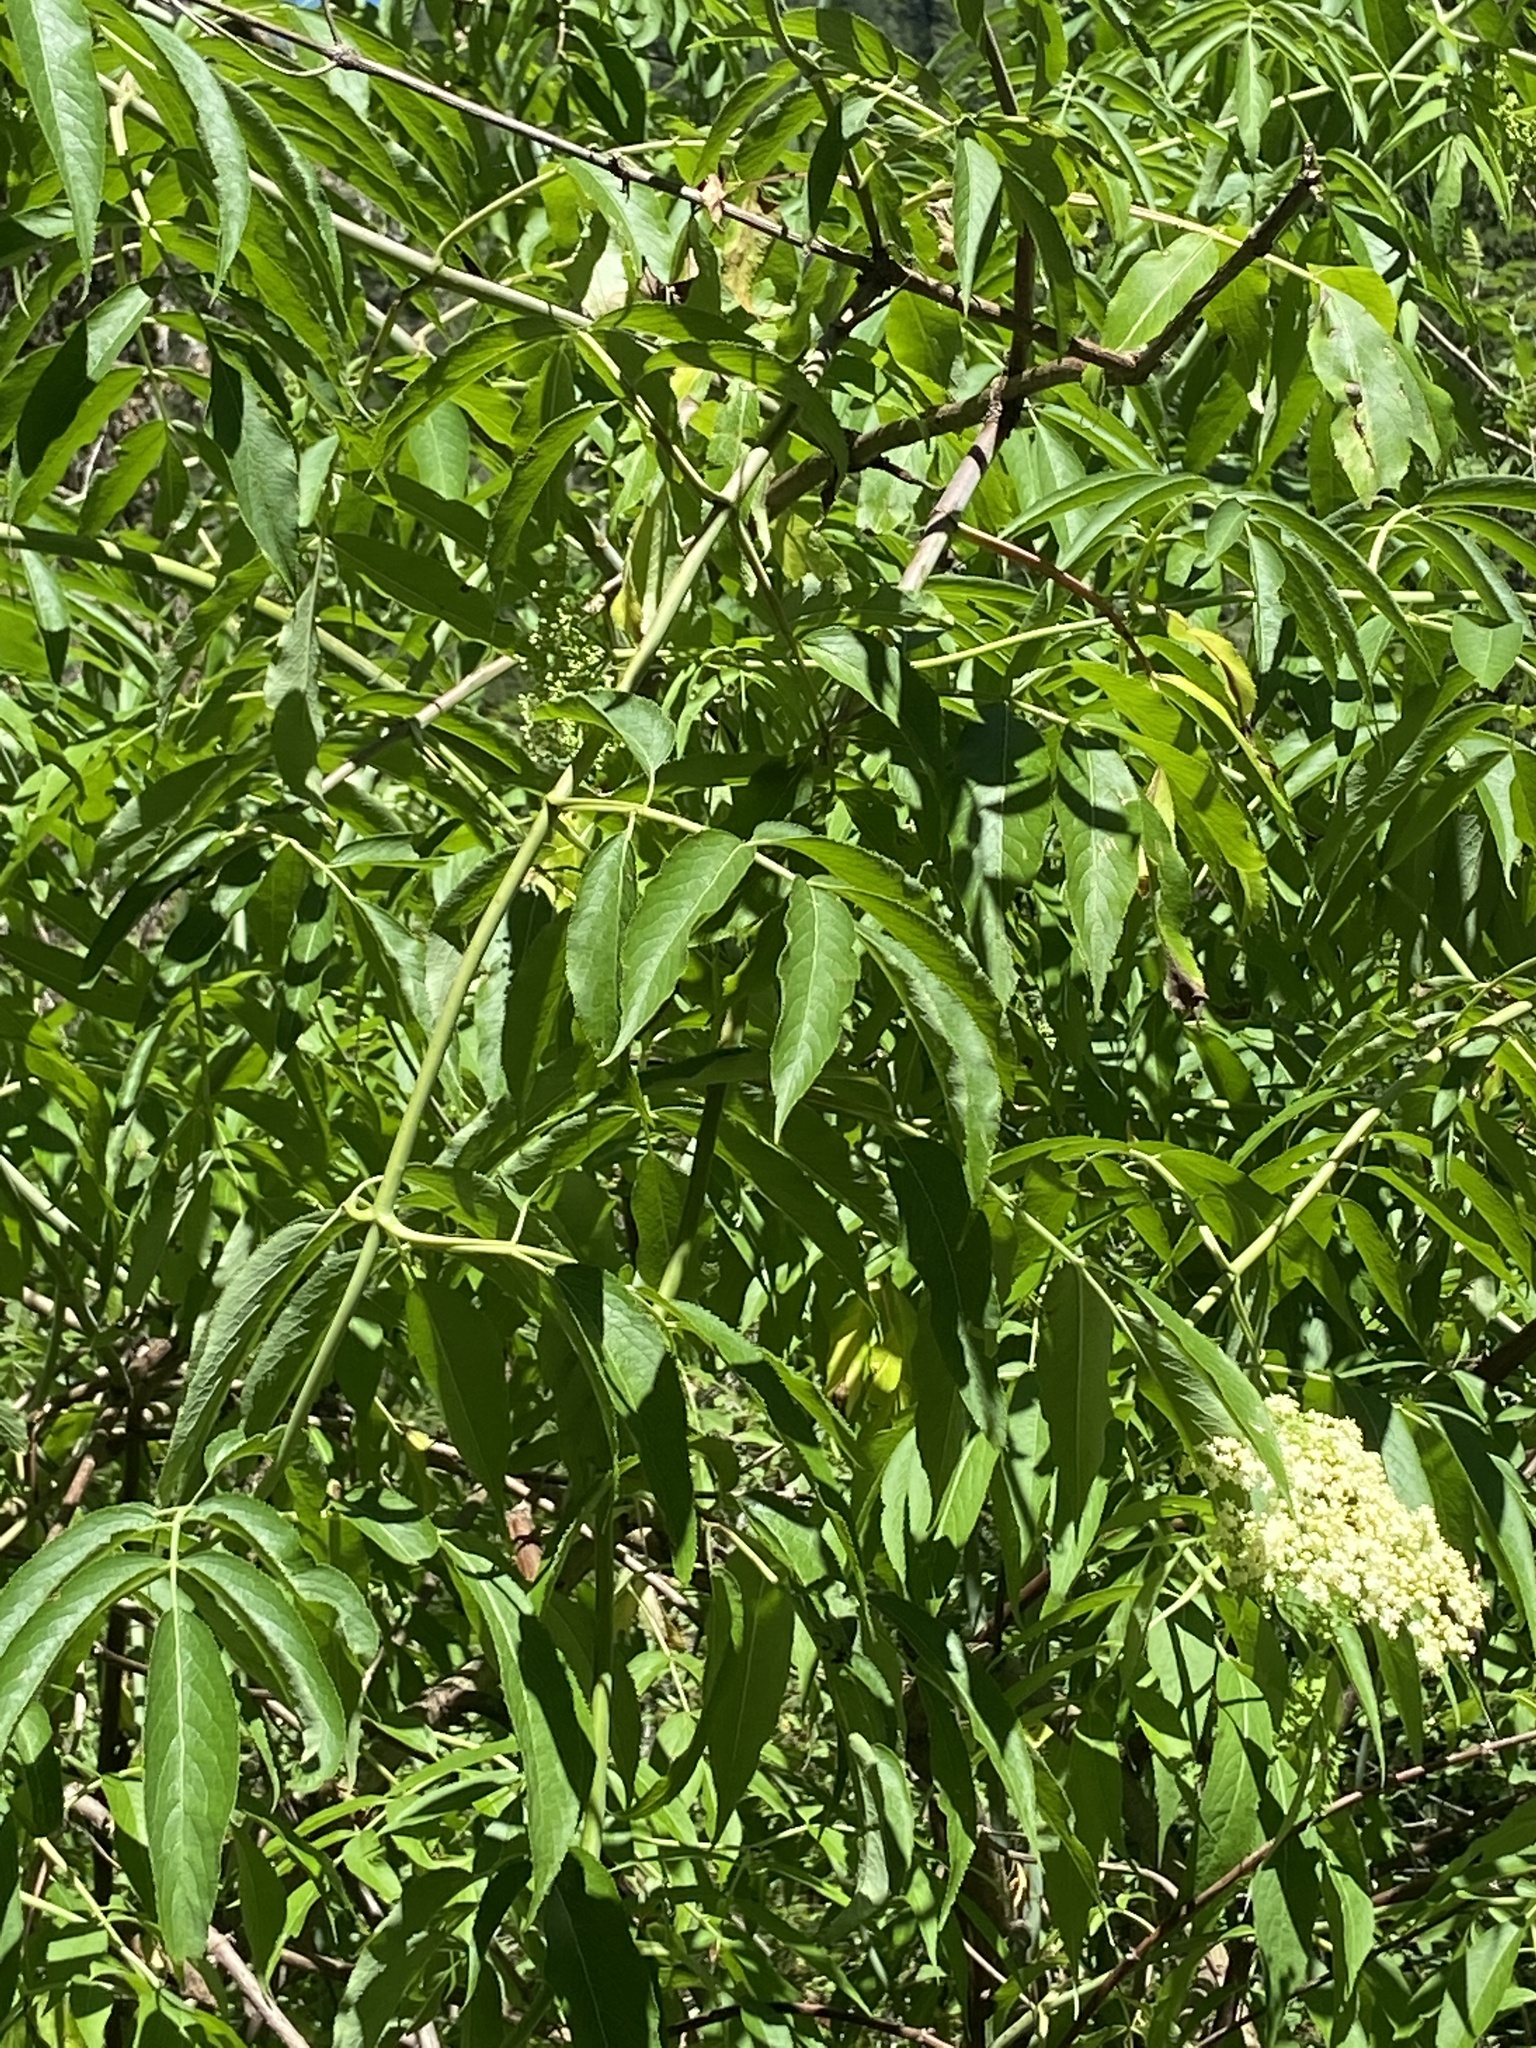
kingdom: Plantae
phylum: Tracheophyta
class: Magnoliopsida
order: Dipsacales
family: Viburnaceae
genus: Sambucus
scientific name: Sambucus cerulea
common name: Blue elder
